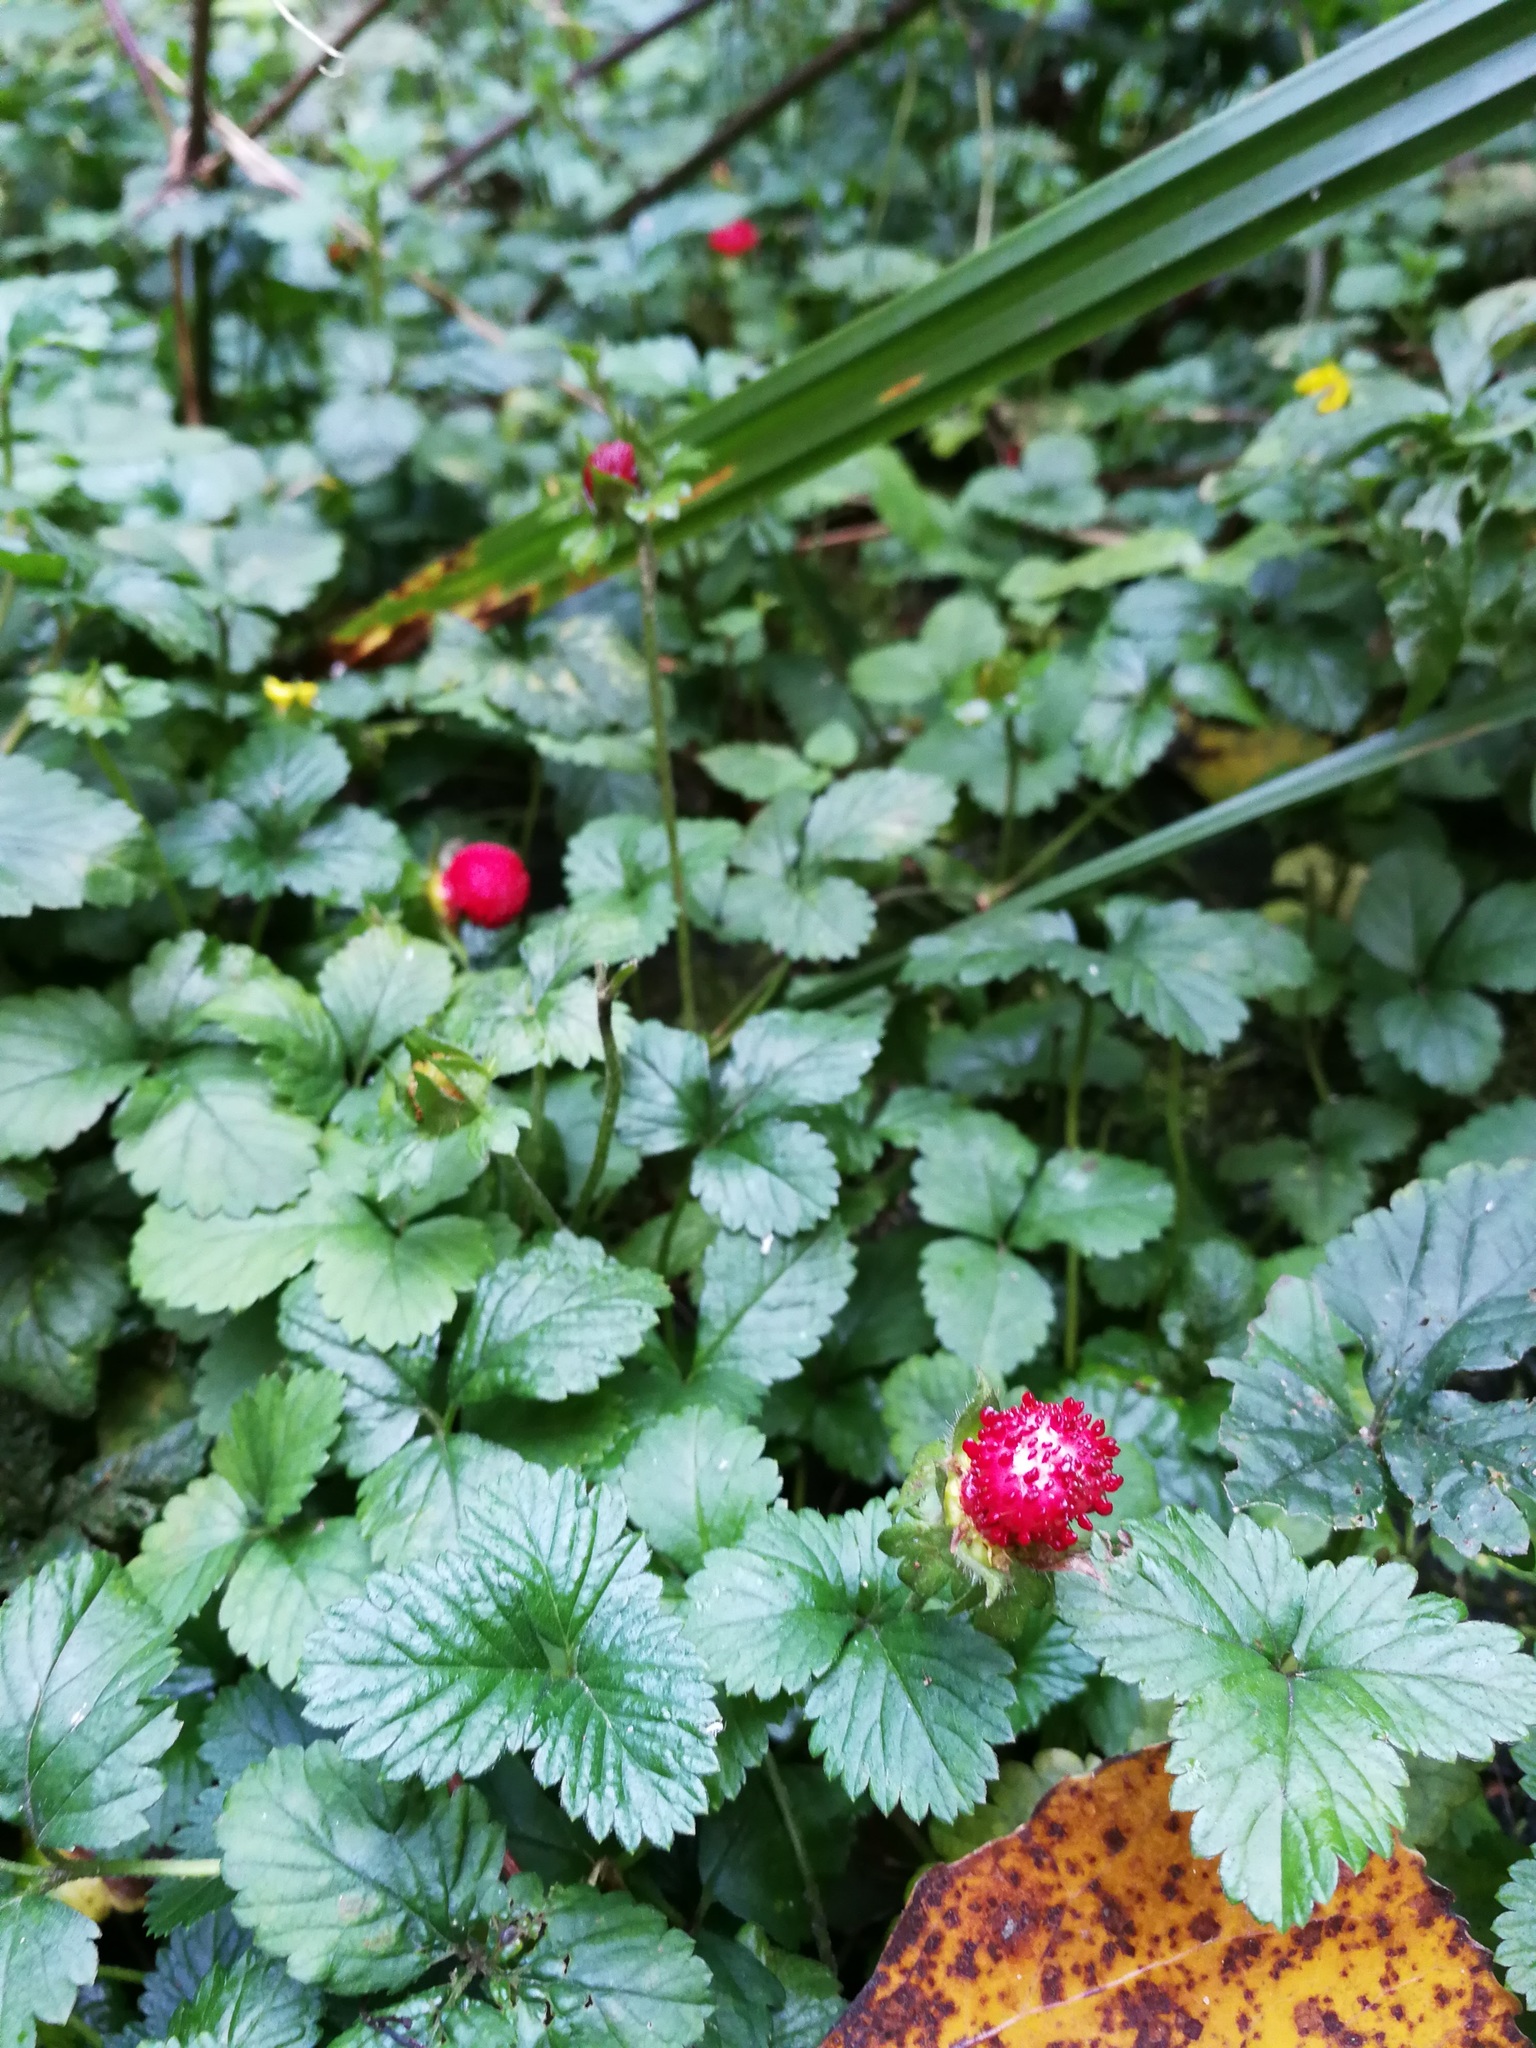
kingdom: Plantae
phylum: Tracheophyta
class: Magnoliopsida
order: Rosales
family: Rosaceae
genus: Potentilla
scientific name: Potentilla indica
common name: Yellow-flowered strawberry
